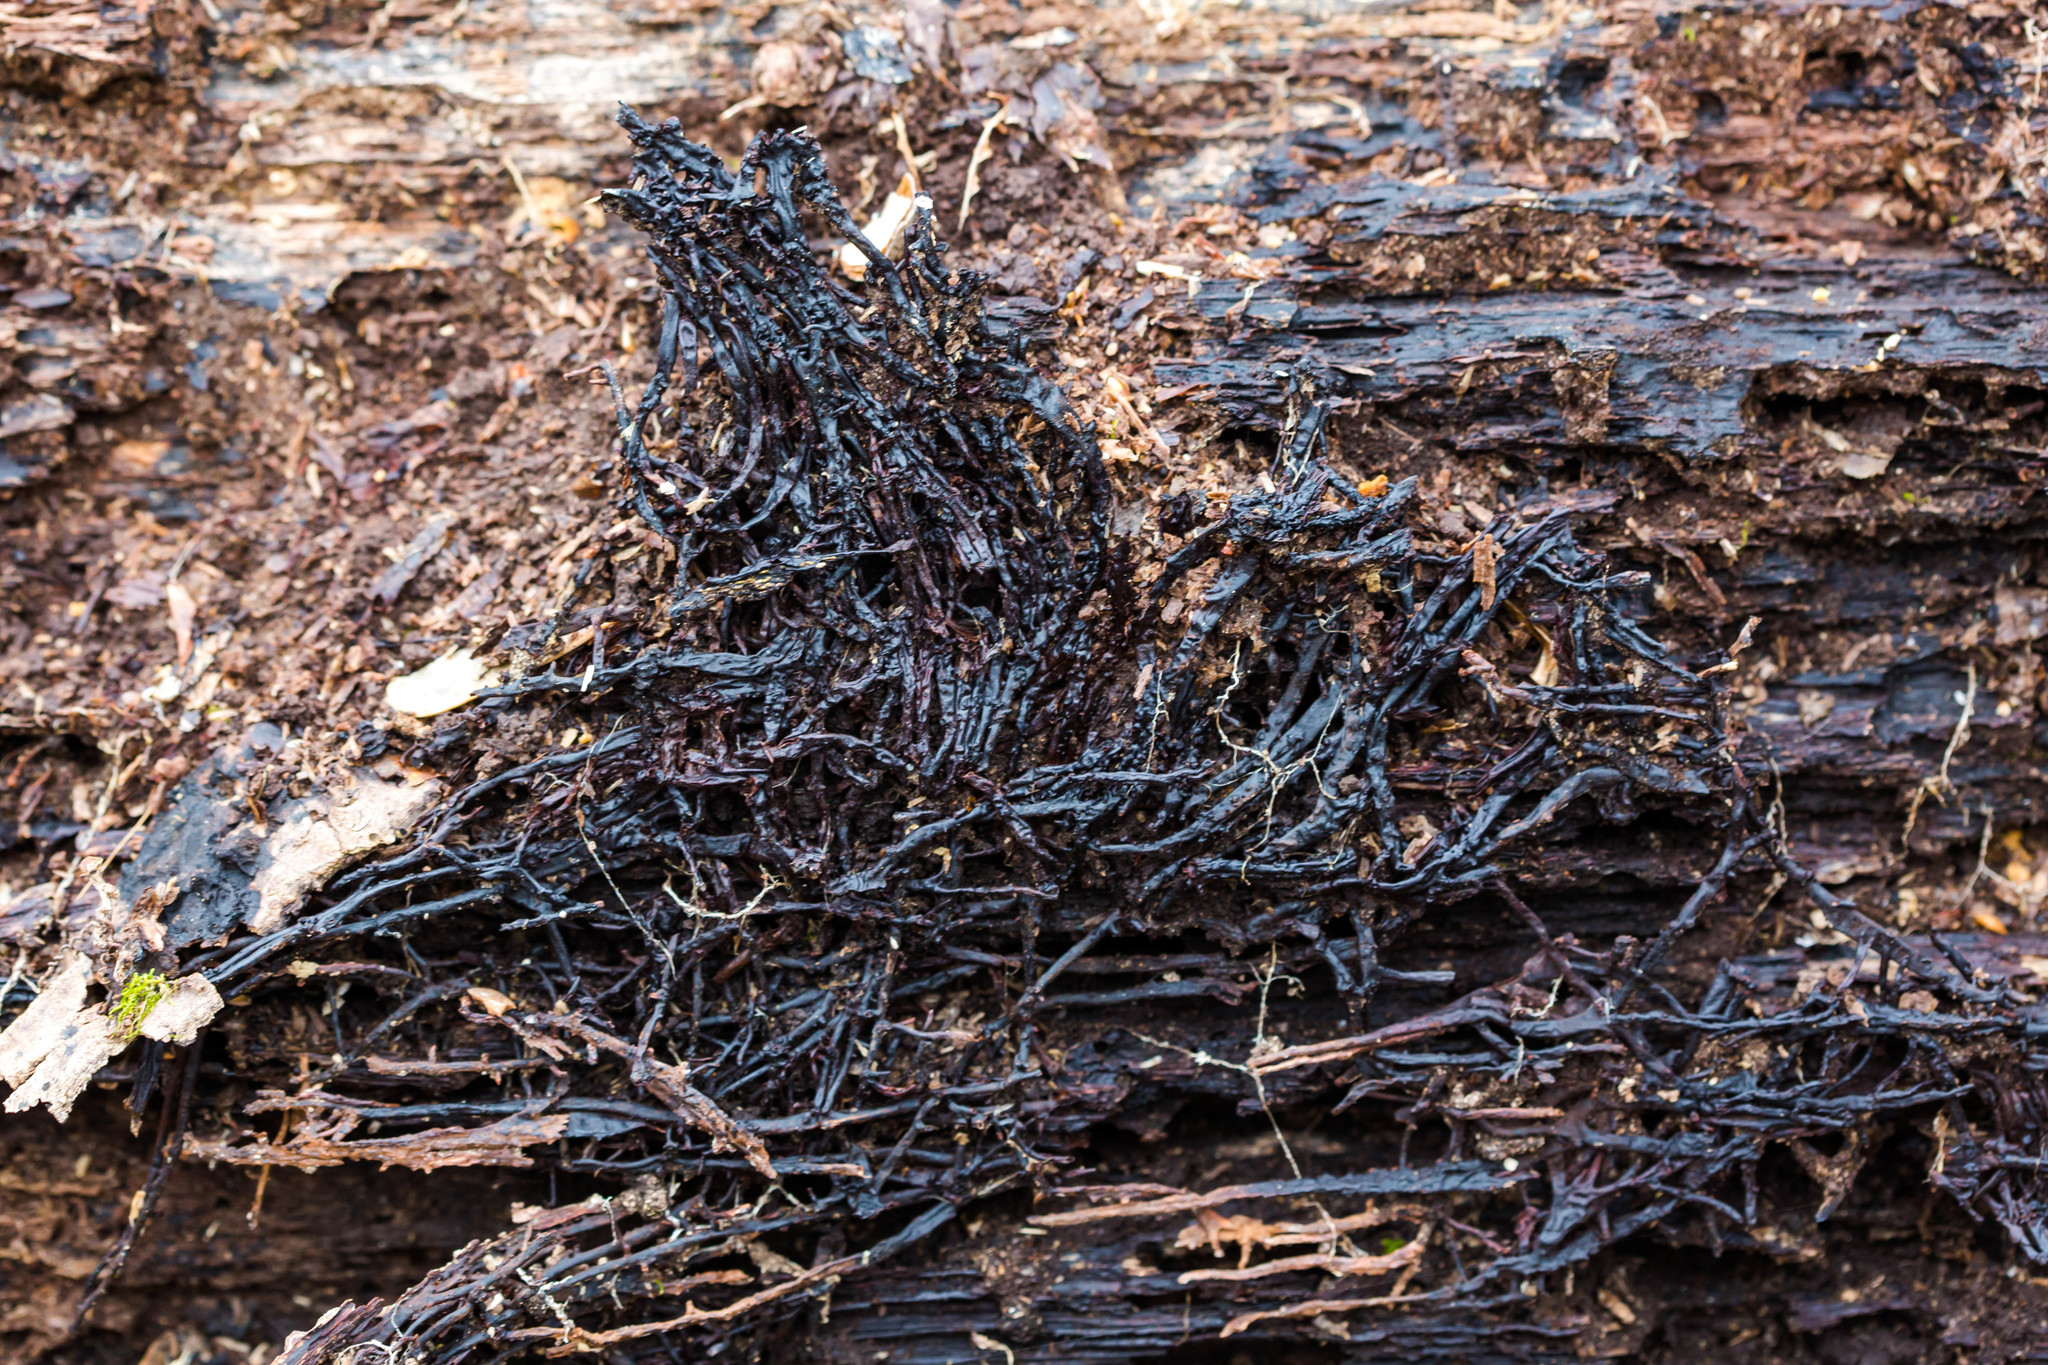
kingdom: Fungi
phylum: Basidiomycota
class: Agaricomycetes
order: Agaricales
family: Physalacriaceae
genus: Armillaria
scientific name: Armillaria mellea
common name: Honey fungus
